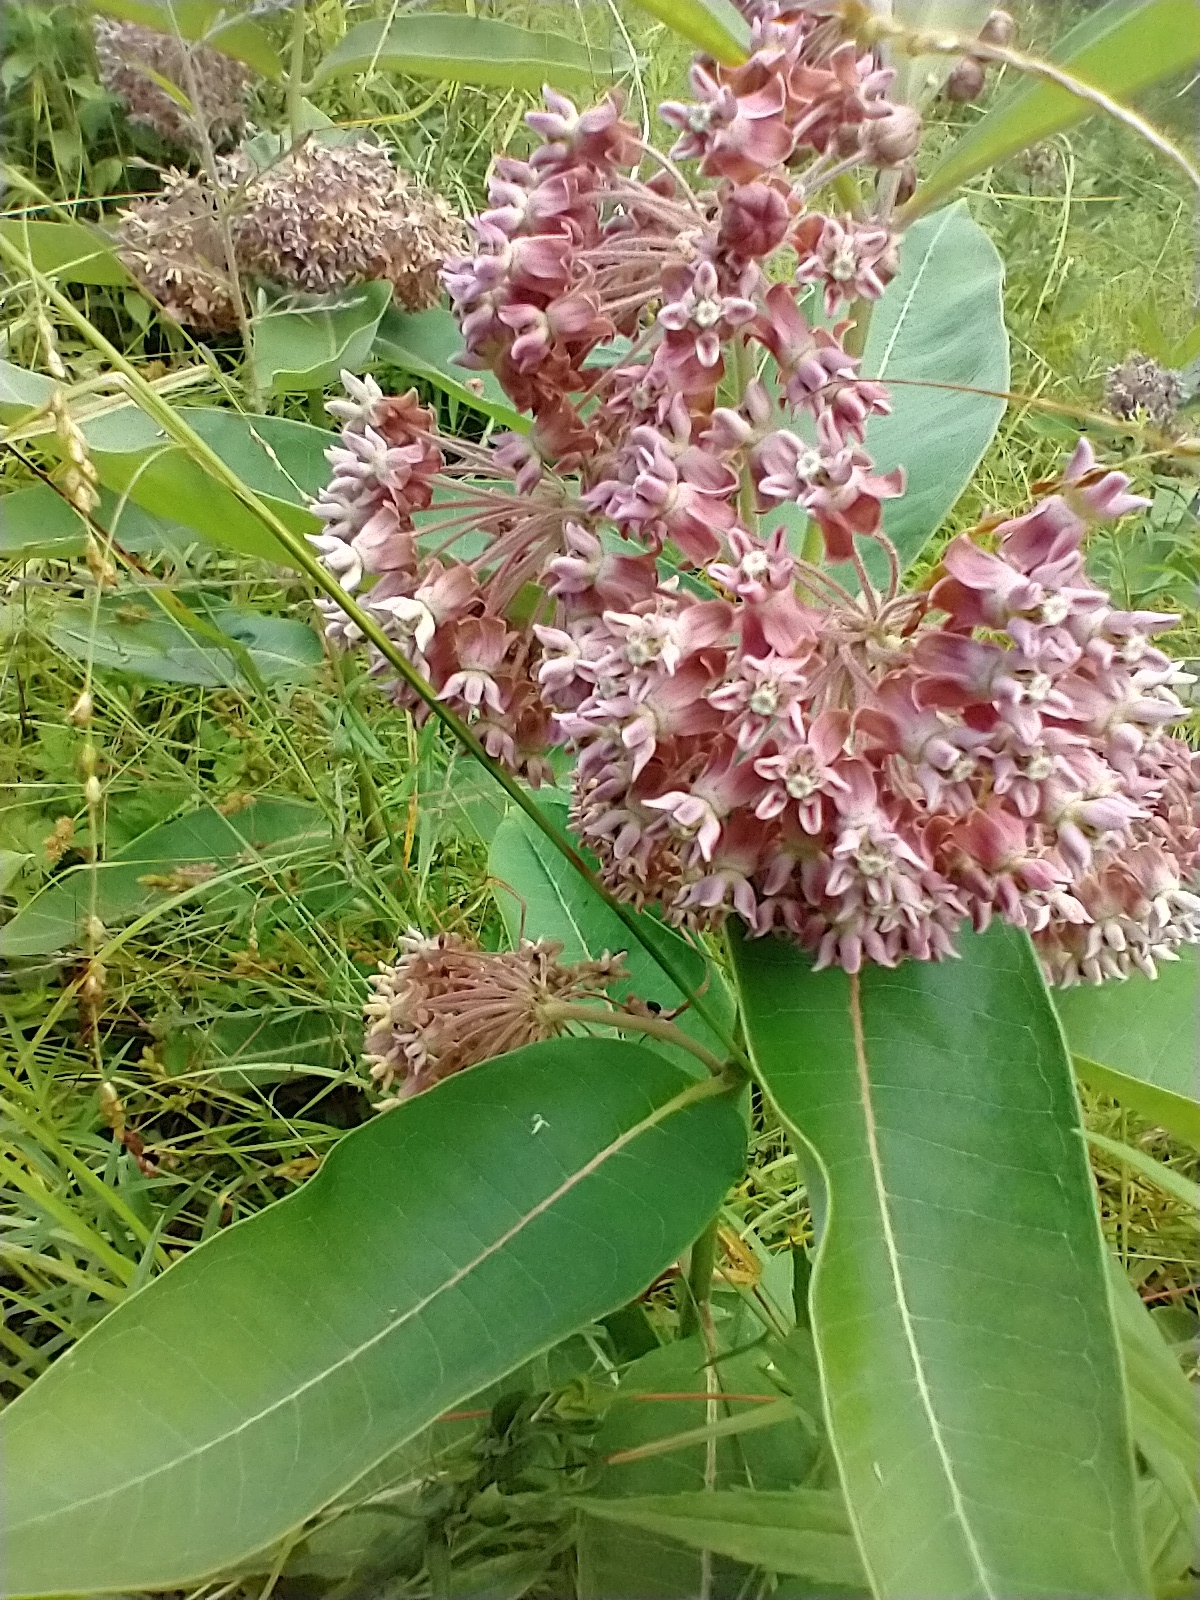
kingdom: Plantae
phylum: Tracheophyta
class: Magnoliopsida
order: Gentianales
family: Apocynaceae
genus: Asclepias
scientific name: Asclepias syriaca
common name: Common milkweed
